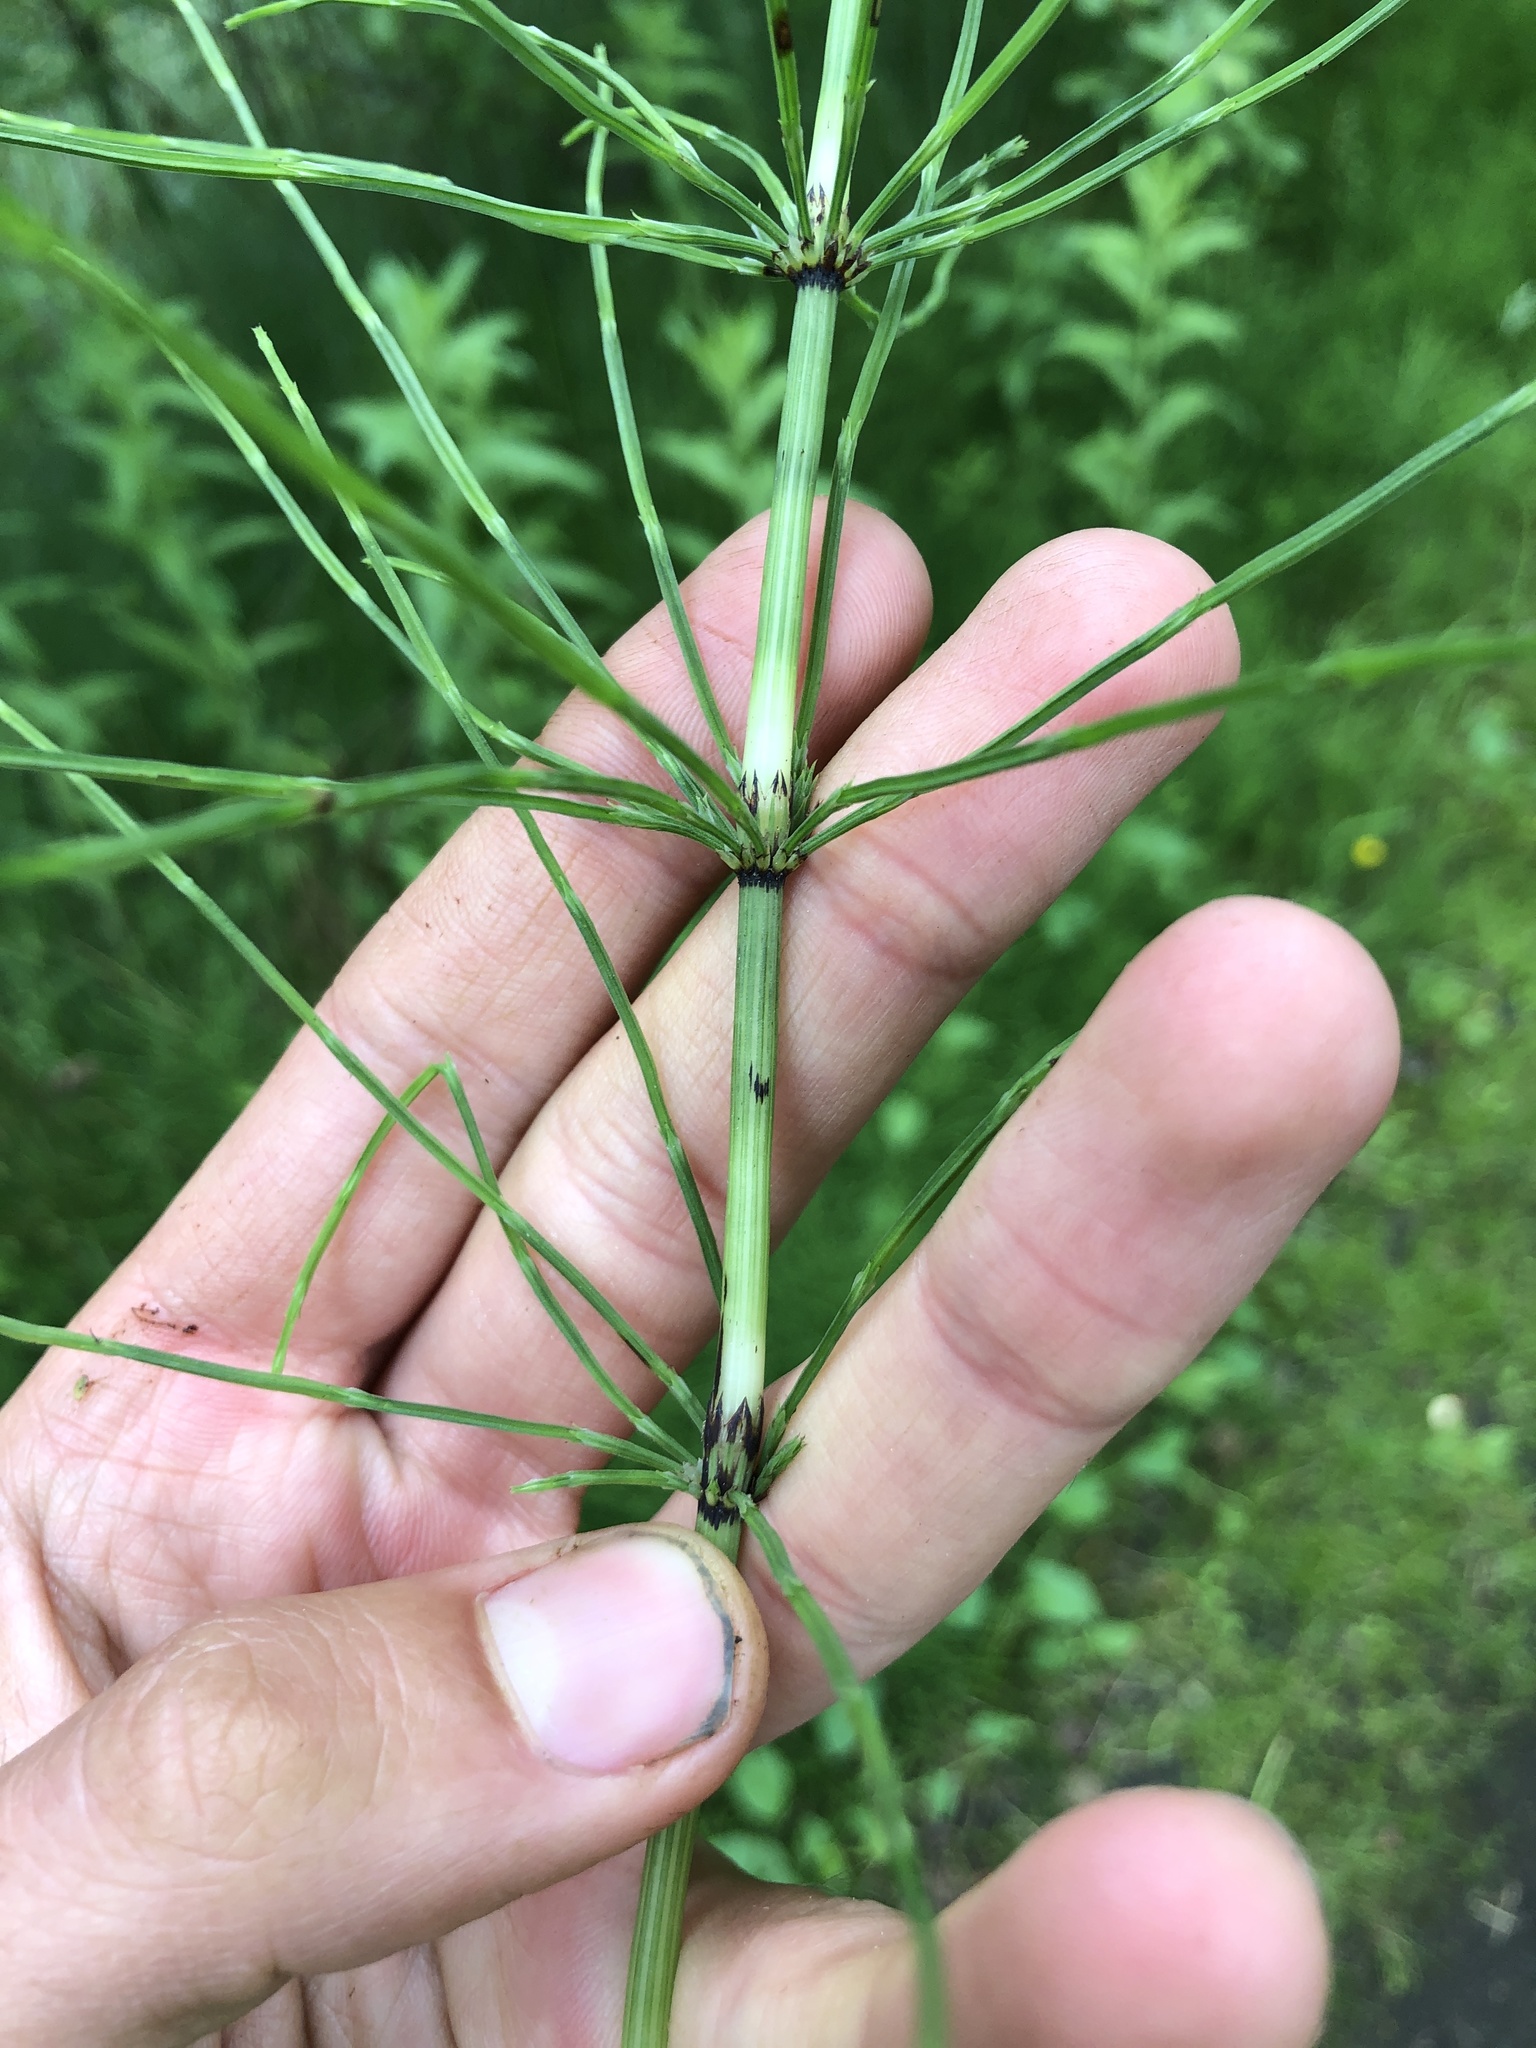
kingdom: Plantae
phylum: Tracheophyta
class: Polypodiopsida
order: Equisetales
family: Equisetaceae
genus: Equisetum
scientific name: Equisetum arvense
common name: Field horsetail
